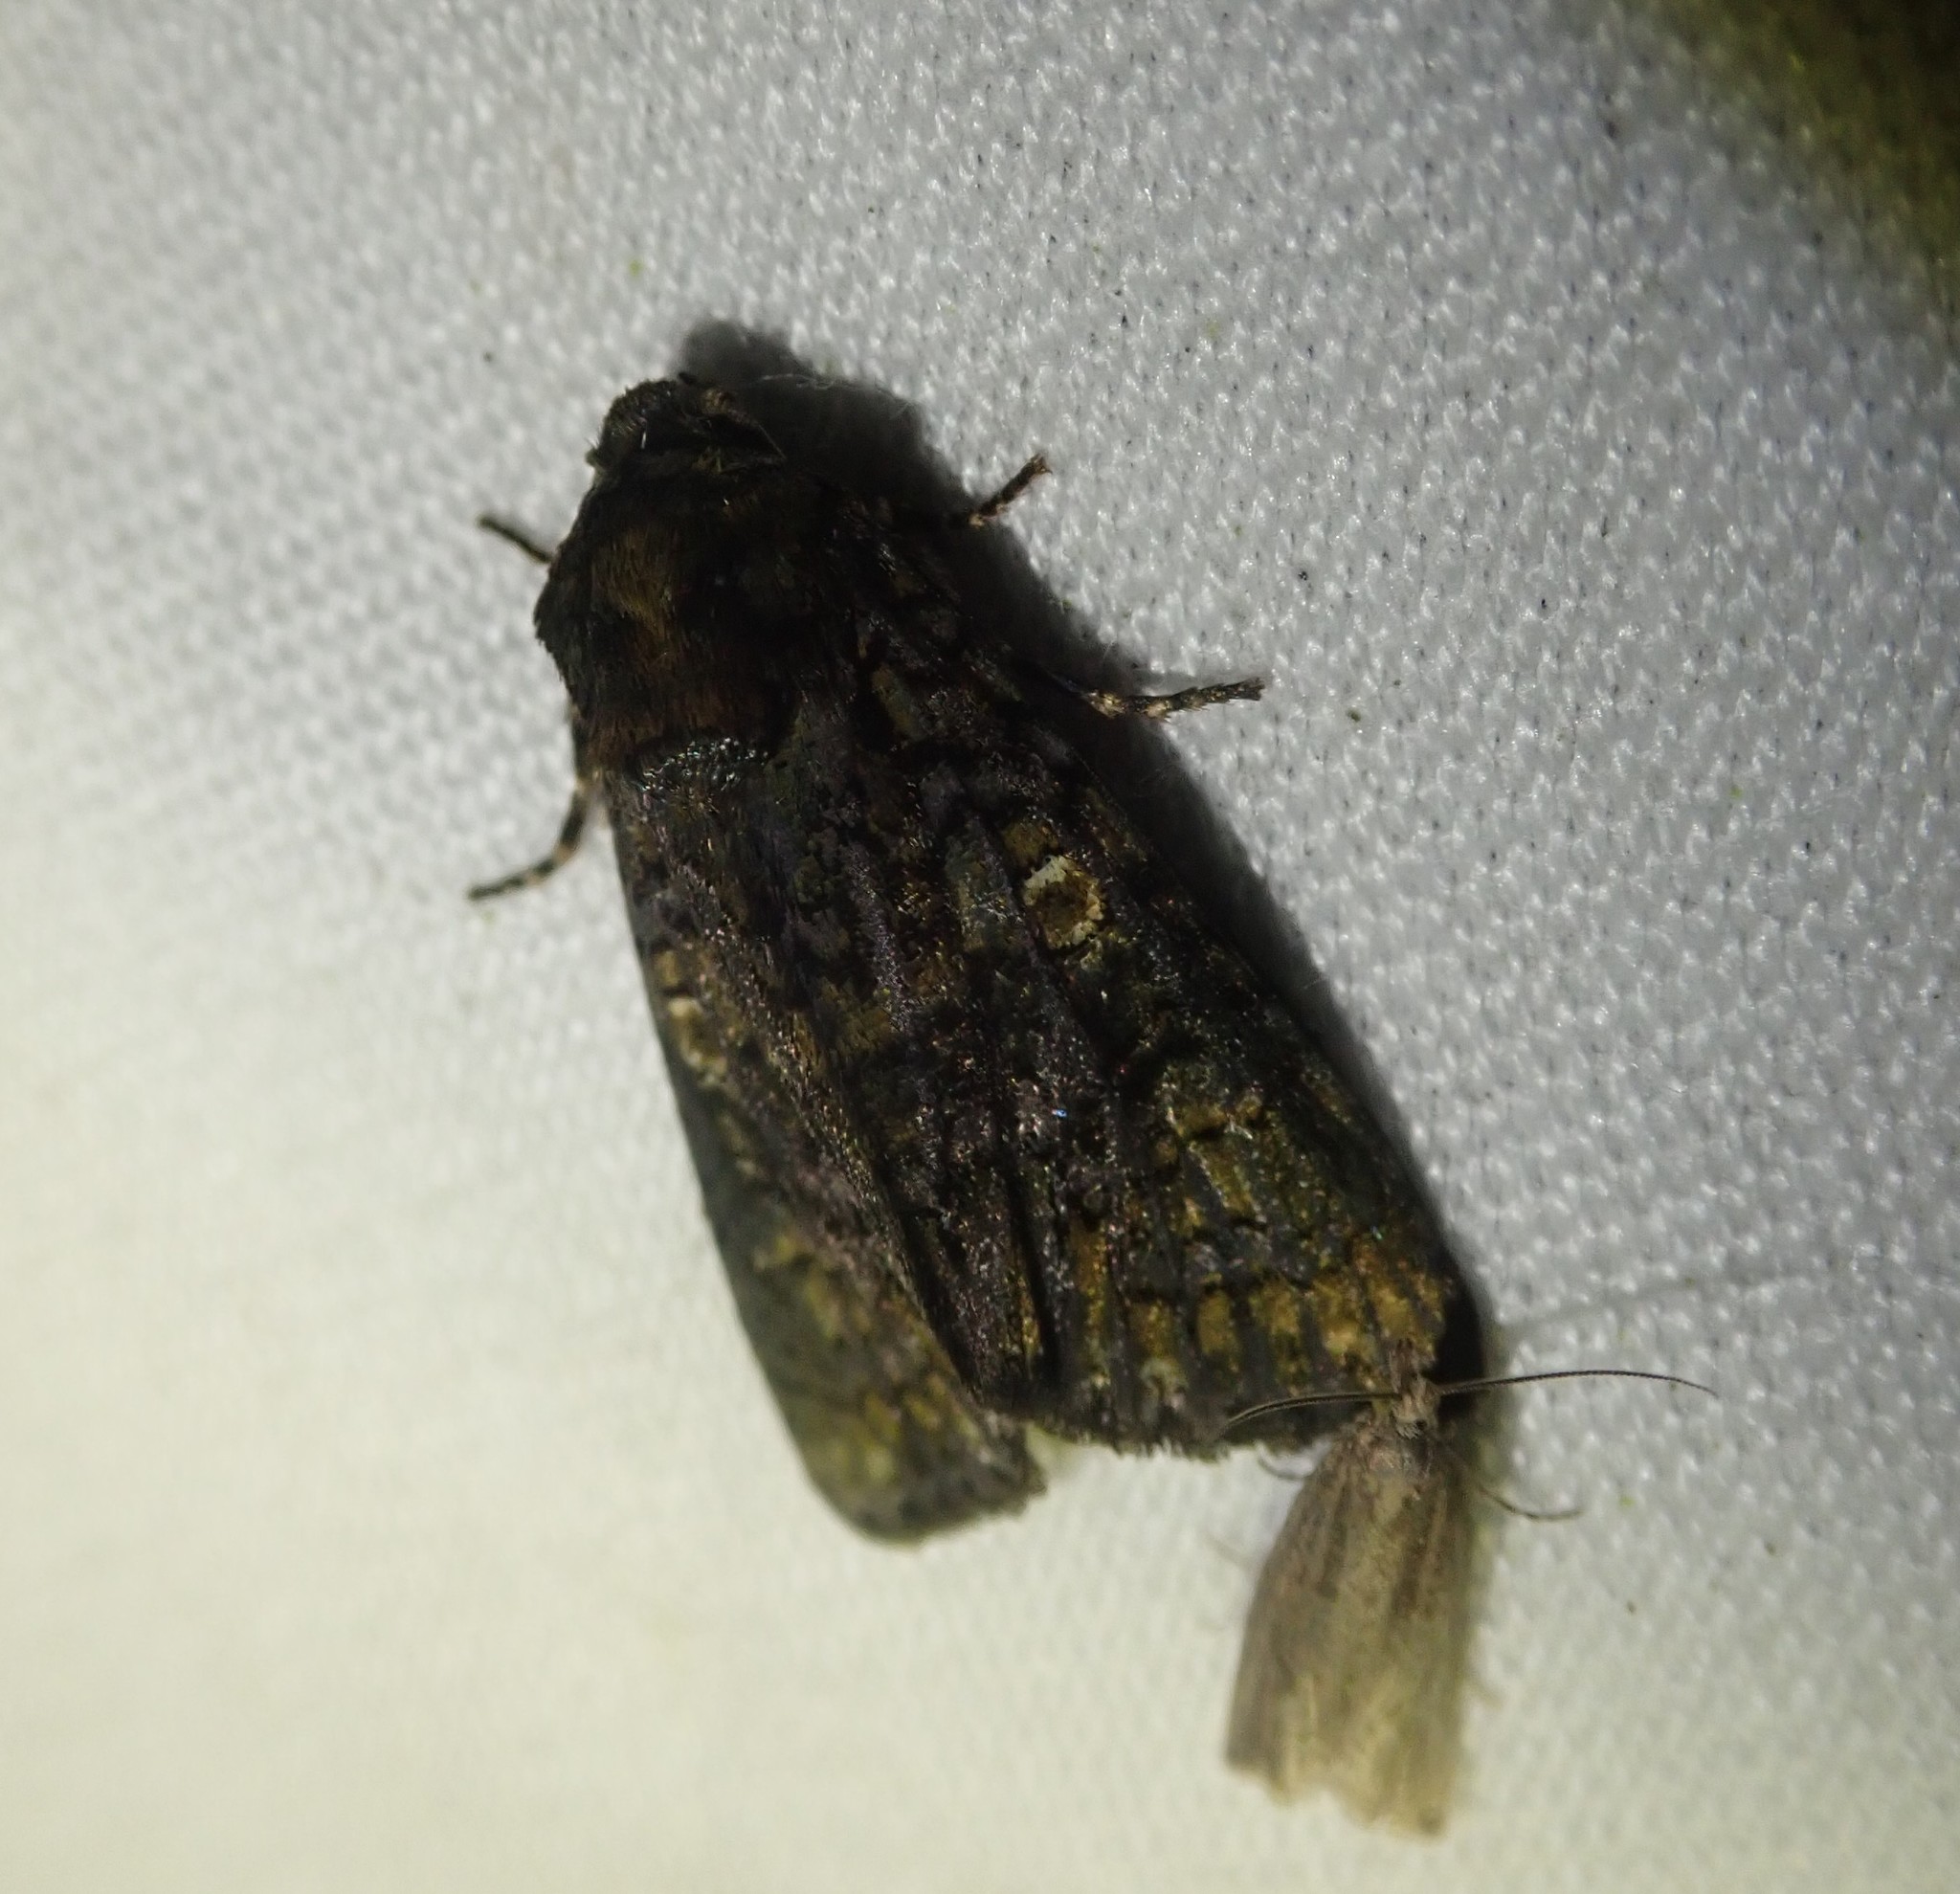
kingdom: Animalia
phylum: Arthropoda
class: Insecta
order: Lepidoptera
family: Noctuidae
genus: Craniophora
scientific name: Craniophora ligustri
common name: Coronet
